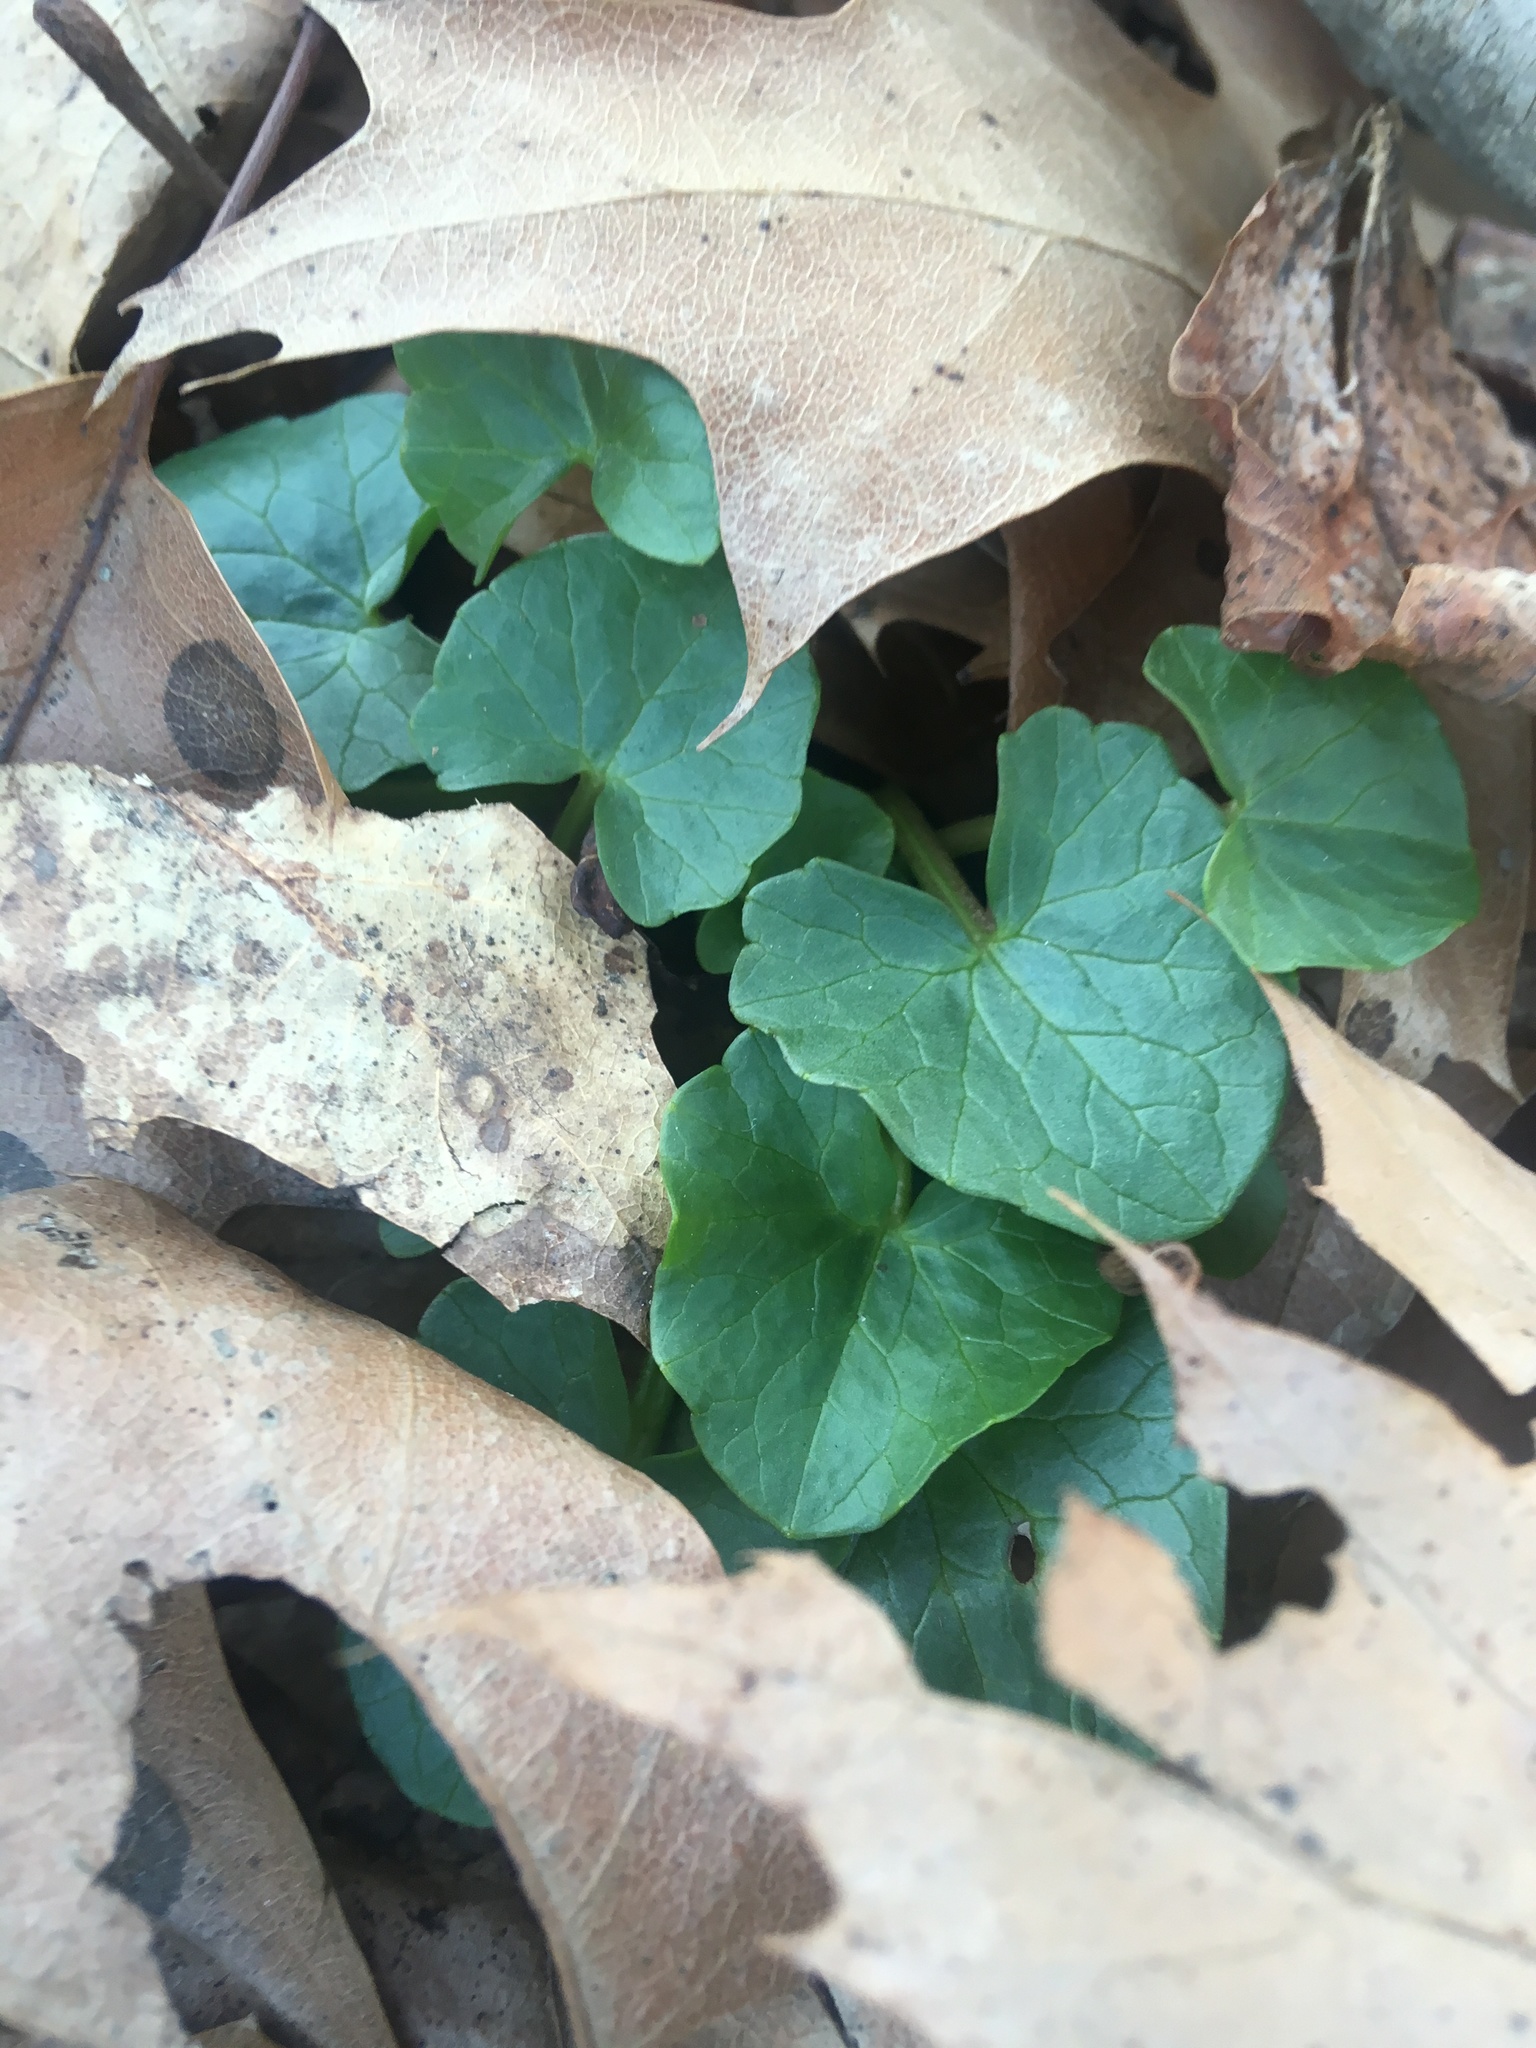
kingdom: Plantae
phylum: Tracheophyta
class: Magnoliopsida
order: Ranunculales
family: Ranunculaceae
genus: Ficaria
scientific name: Ficaria verna
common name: Lesser celandine
